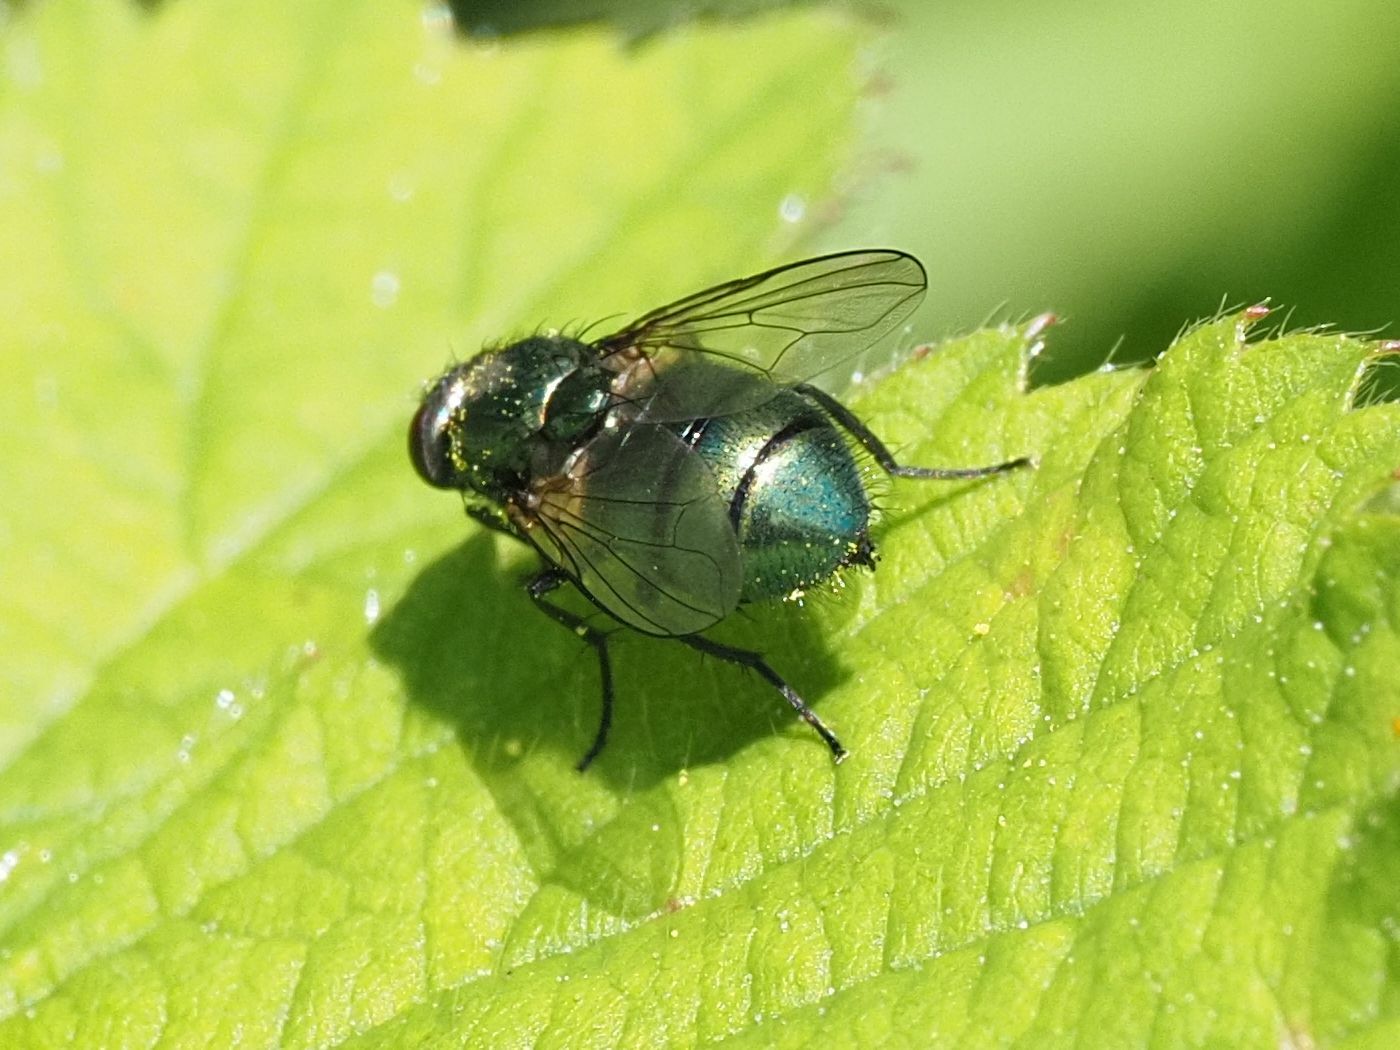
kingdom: Animalia
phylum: Arthropoda
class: Insecta
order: Diptera
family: Muscidae
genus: Pyrellia
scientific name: Pyrellia rapax
